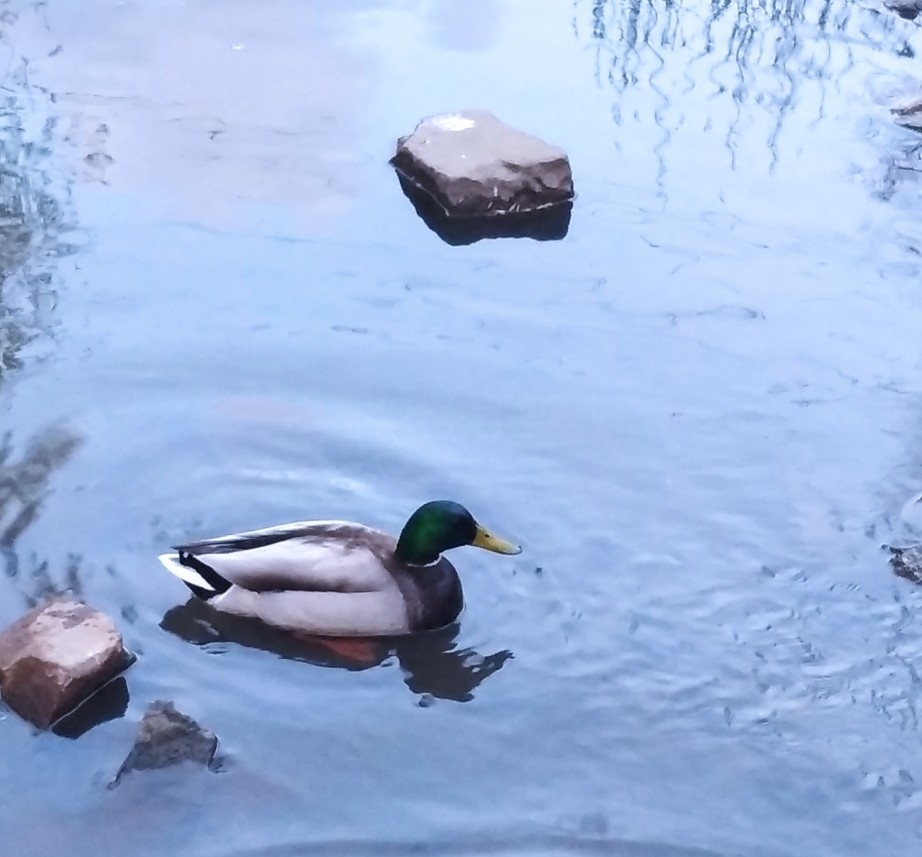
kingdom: Animalia
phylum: Chordata
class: Aves
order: Anseriformes
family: Anatidae
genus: Anas
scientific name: Anas platyrhynchos
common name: Mallard
